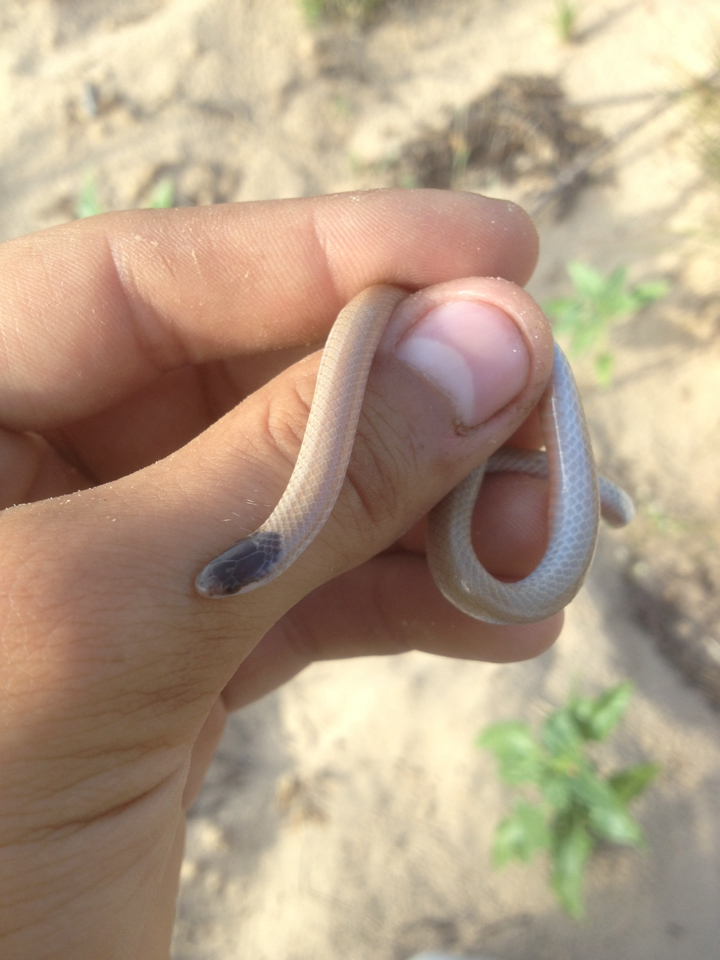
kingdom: Animalia
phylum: Chordata
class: Squamata
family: Colubridae
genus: Tantilla
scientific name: Tantilla nigriceps
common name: Plains blackhead snake
